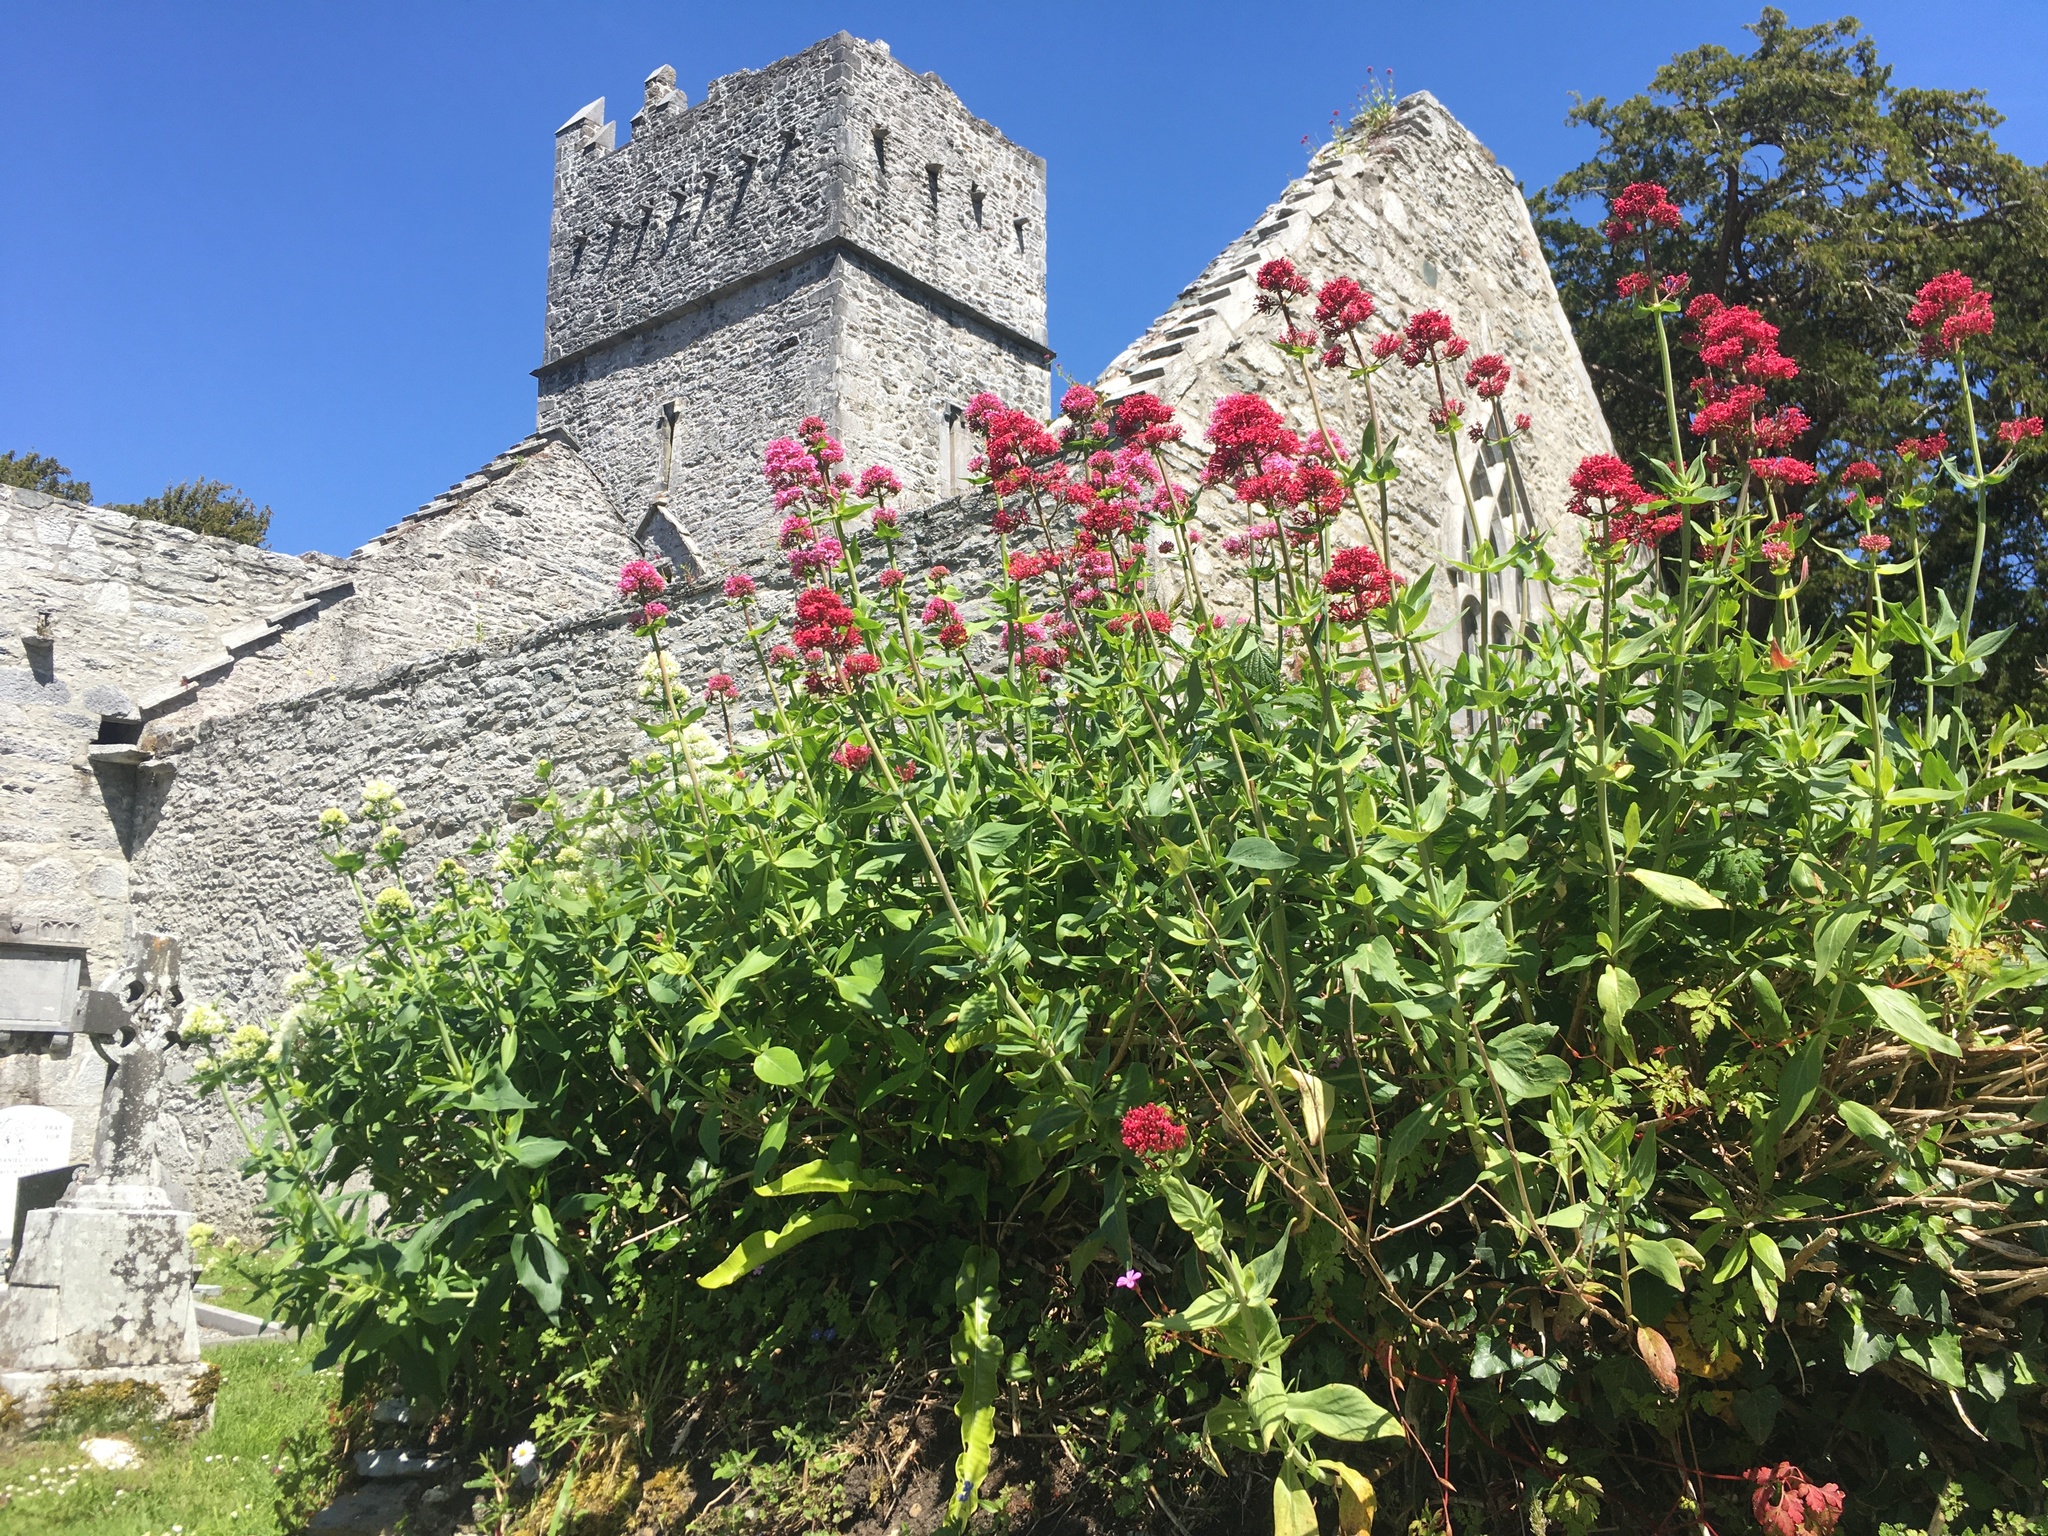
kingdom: Plantae
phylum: Tracheophyta
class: Magnoliopsida
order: Dipsacales
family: Caprifoliaceae
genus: Centranthus
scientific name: Centranthus ruber
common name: Red valerian
